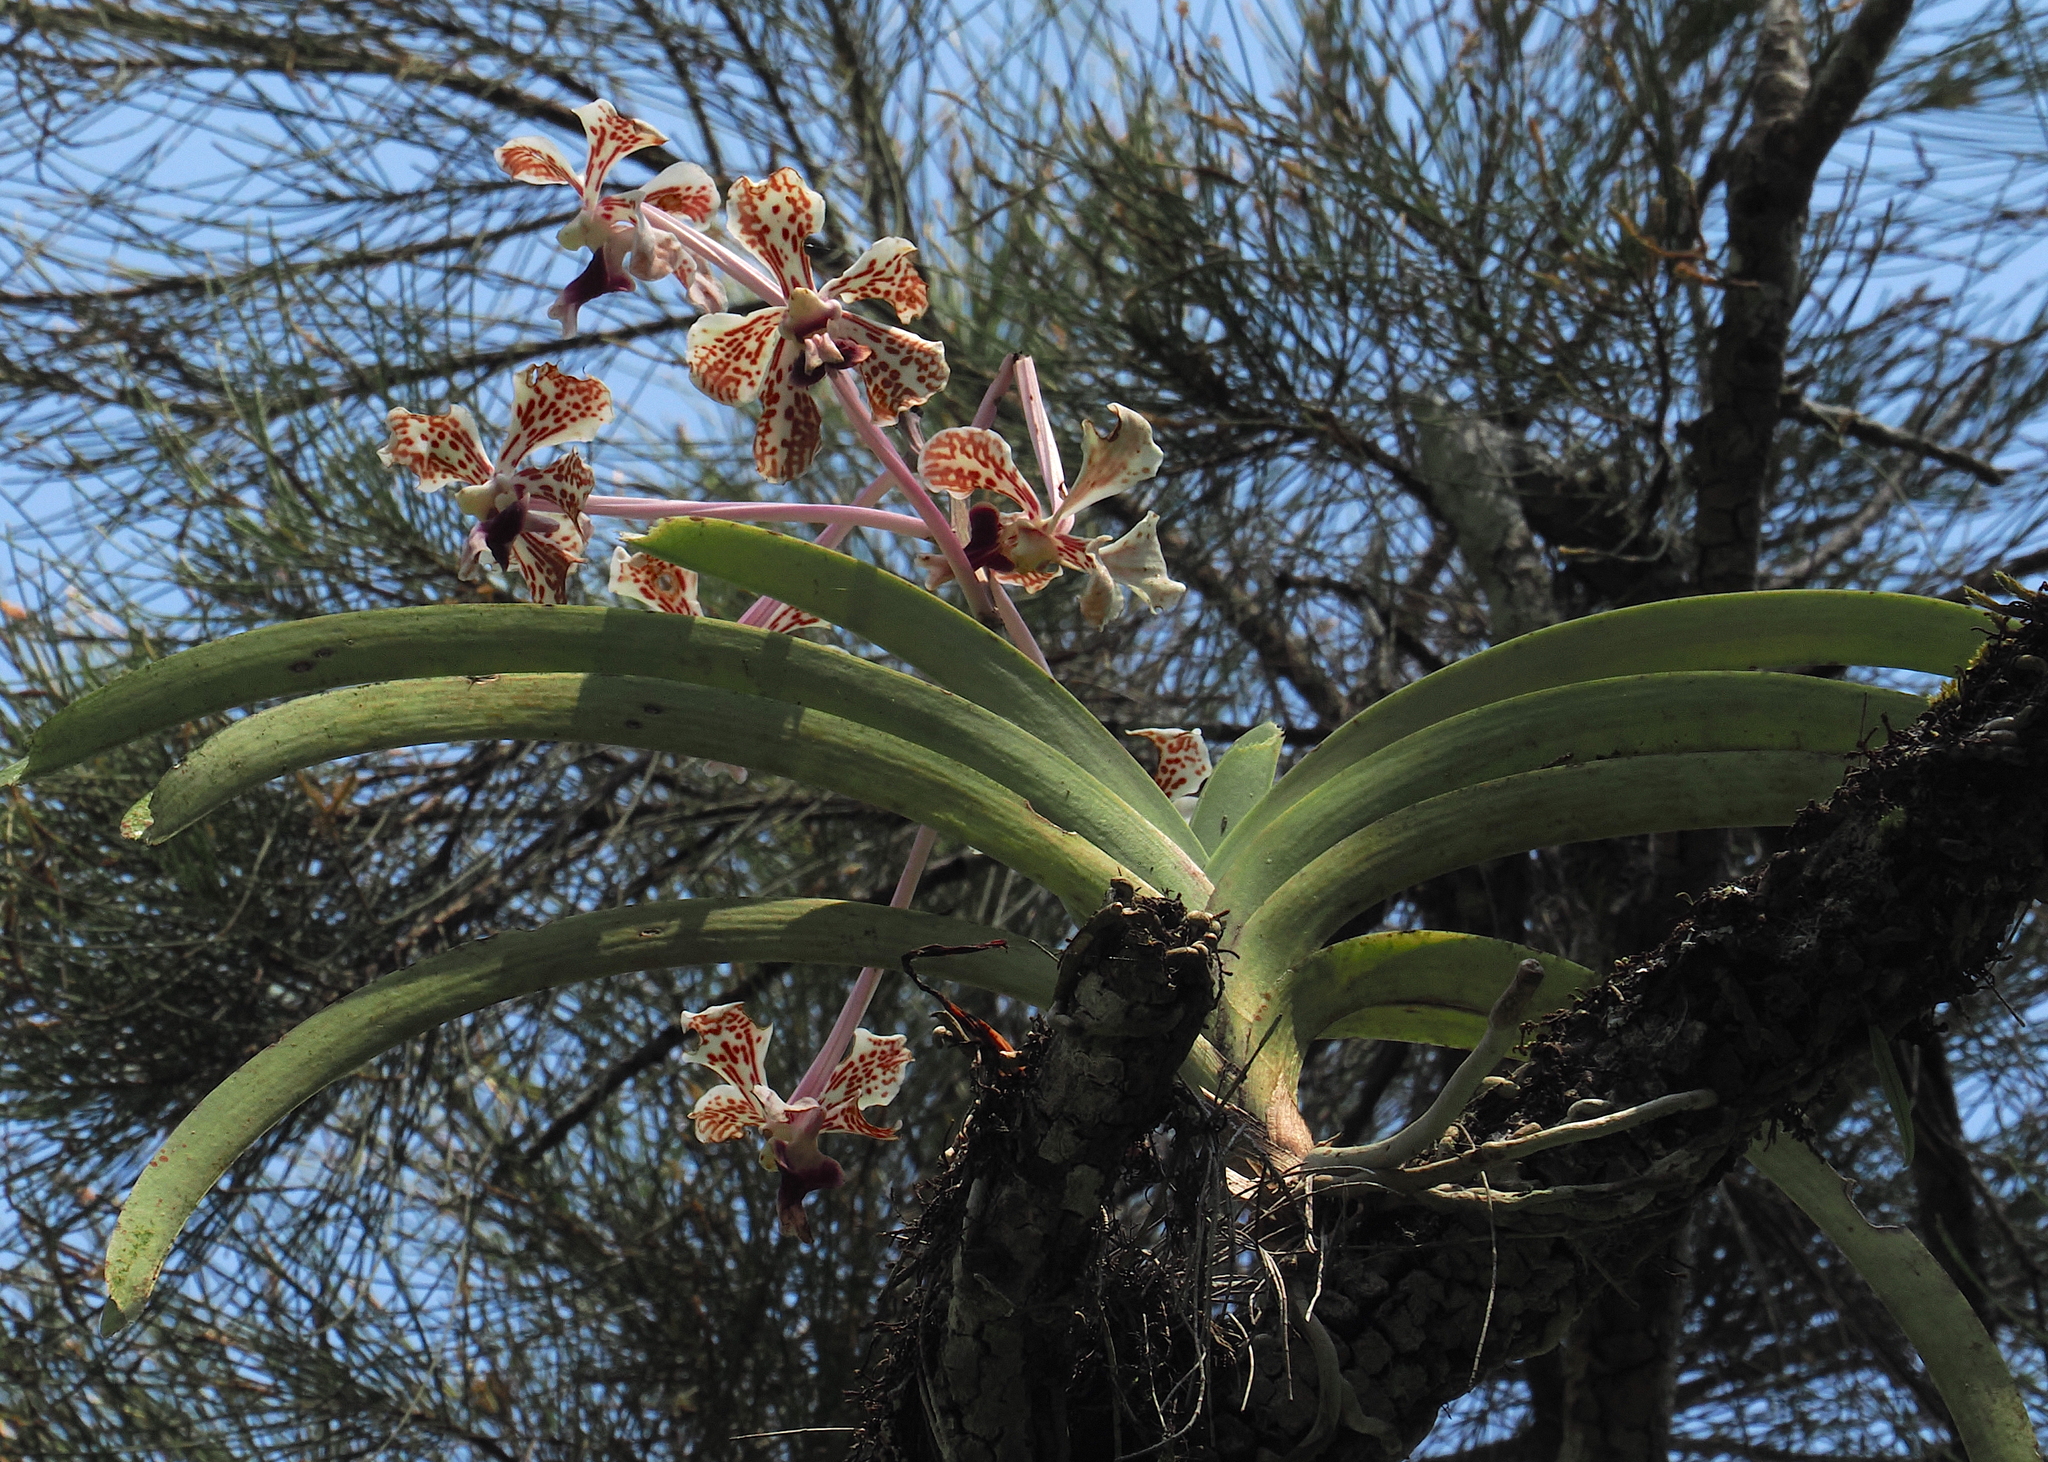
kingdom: Plantae
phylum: Tracheophyta
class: Liliopsida
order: Asparagales
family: Orchidaceae
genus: Vanda
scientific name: Vanda suavis
